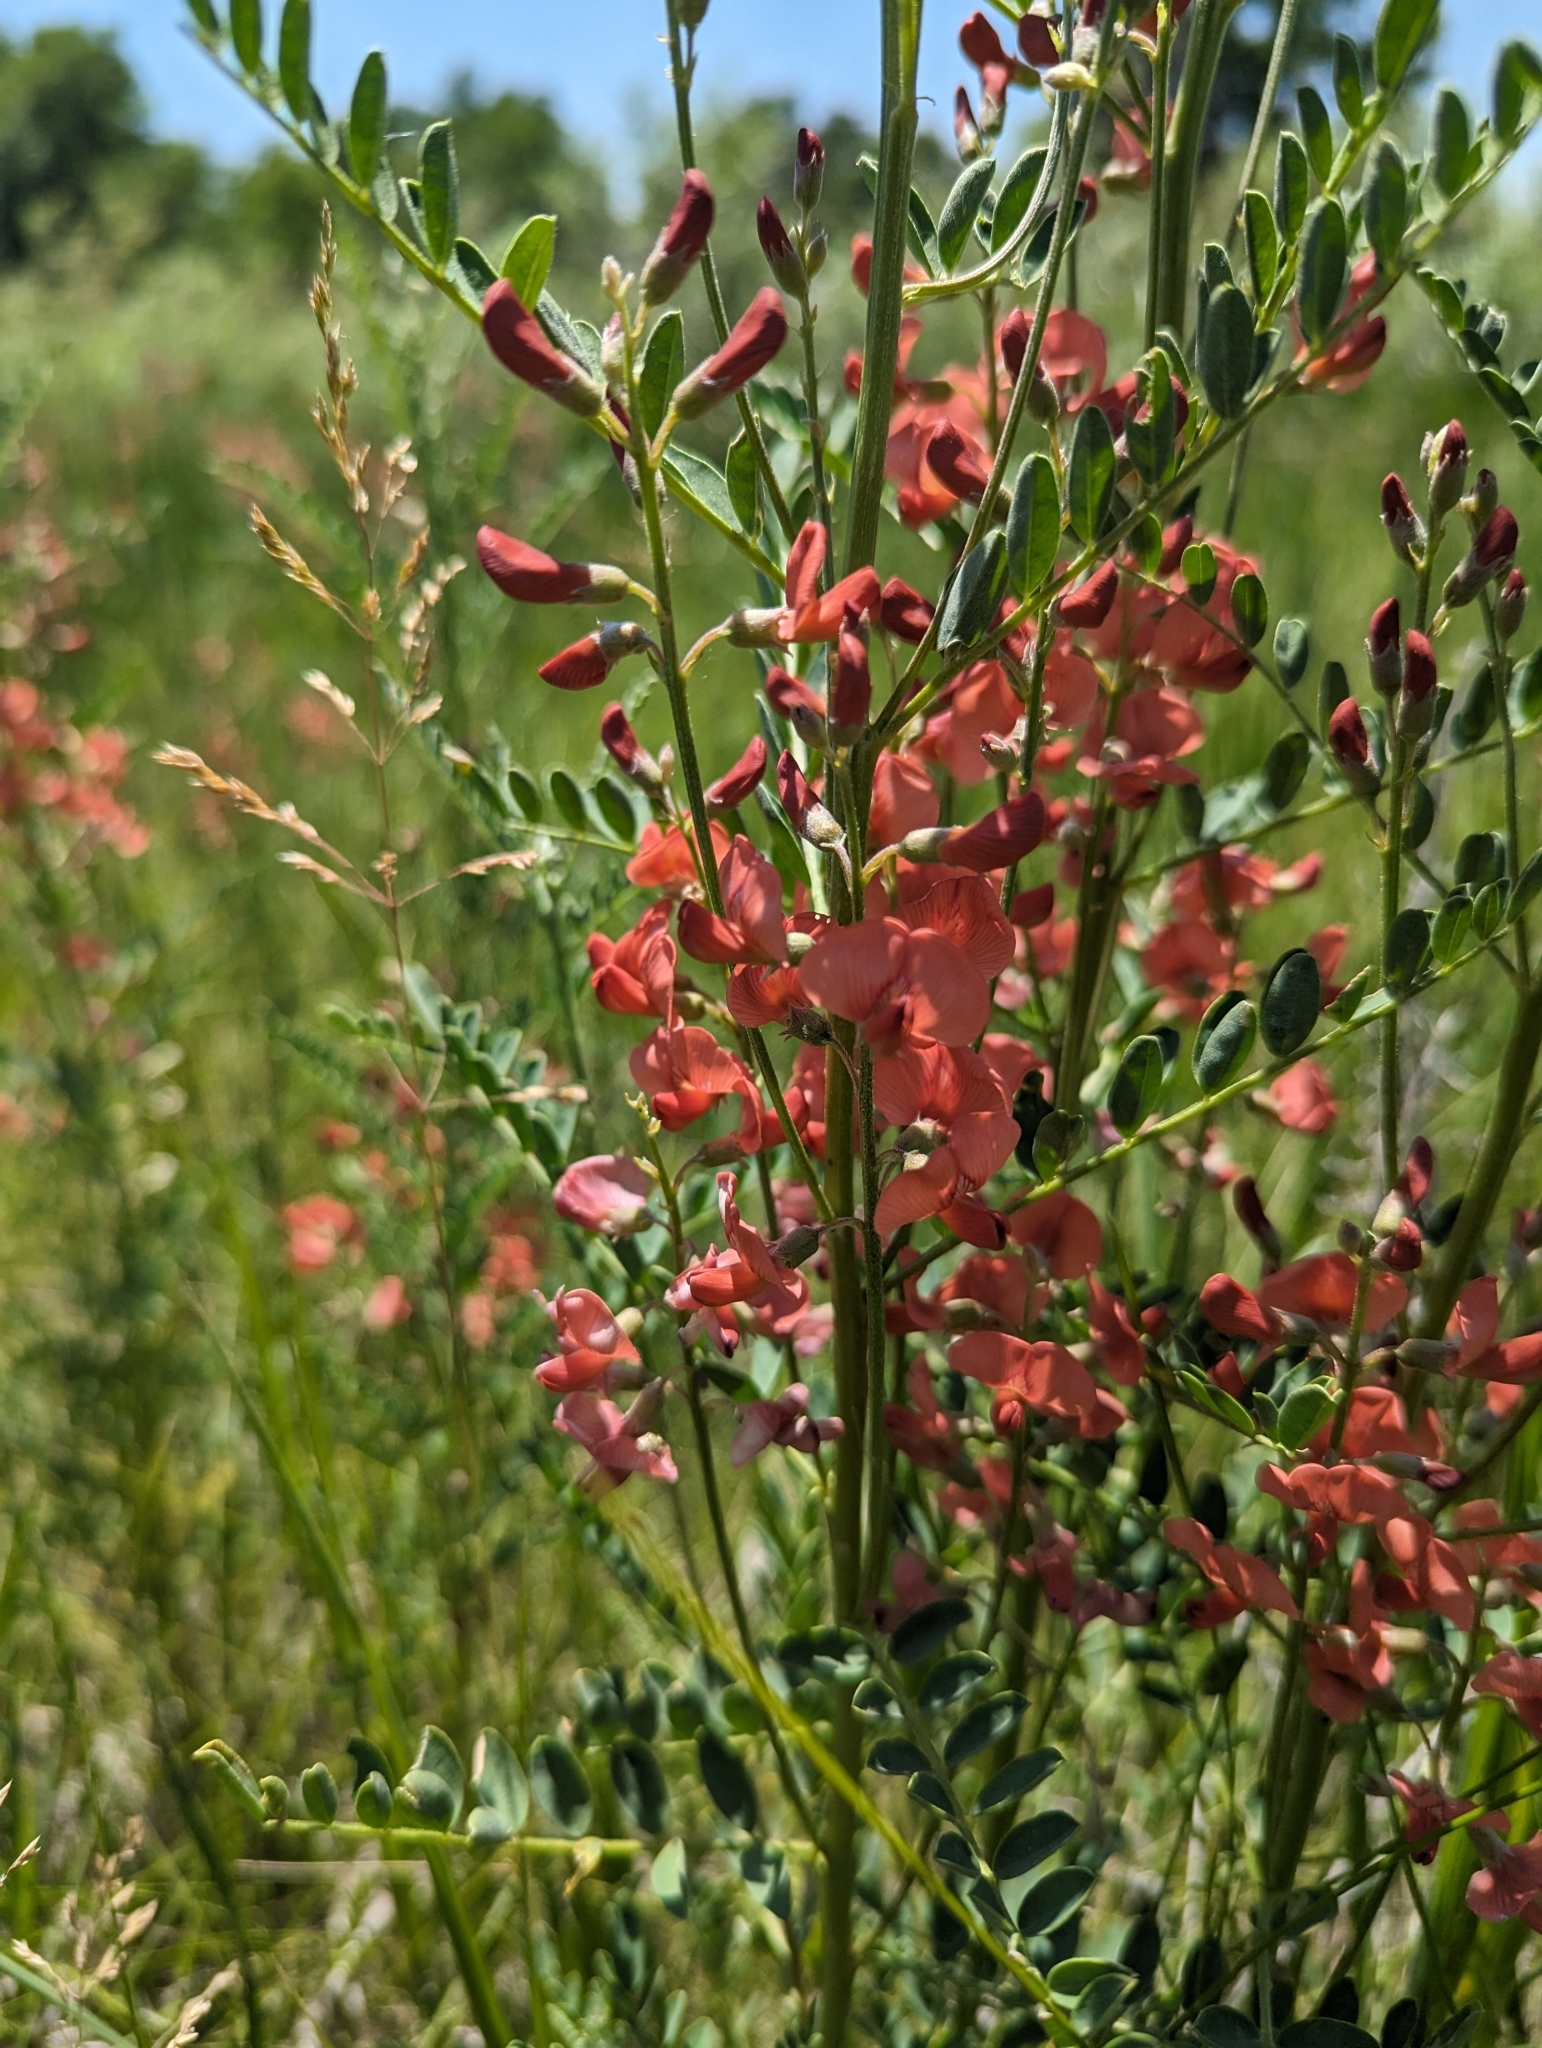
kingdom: Plantae
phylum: Tracheophyta
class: Magnoliopsida
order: Fabales
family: Fabaceae
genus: Sphaerophysa
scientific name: Sphaerophysa salsula
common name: Alkali swainsonpea
